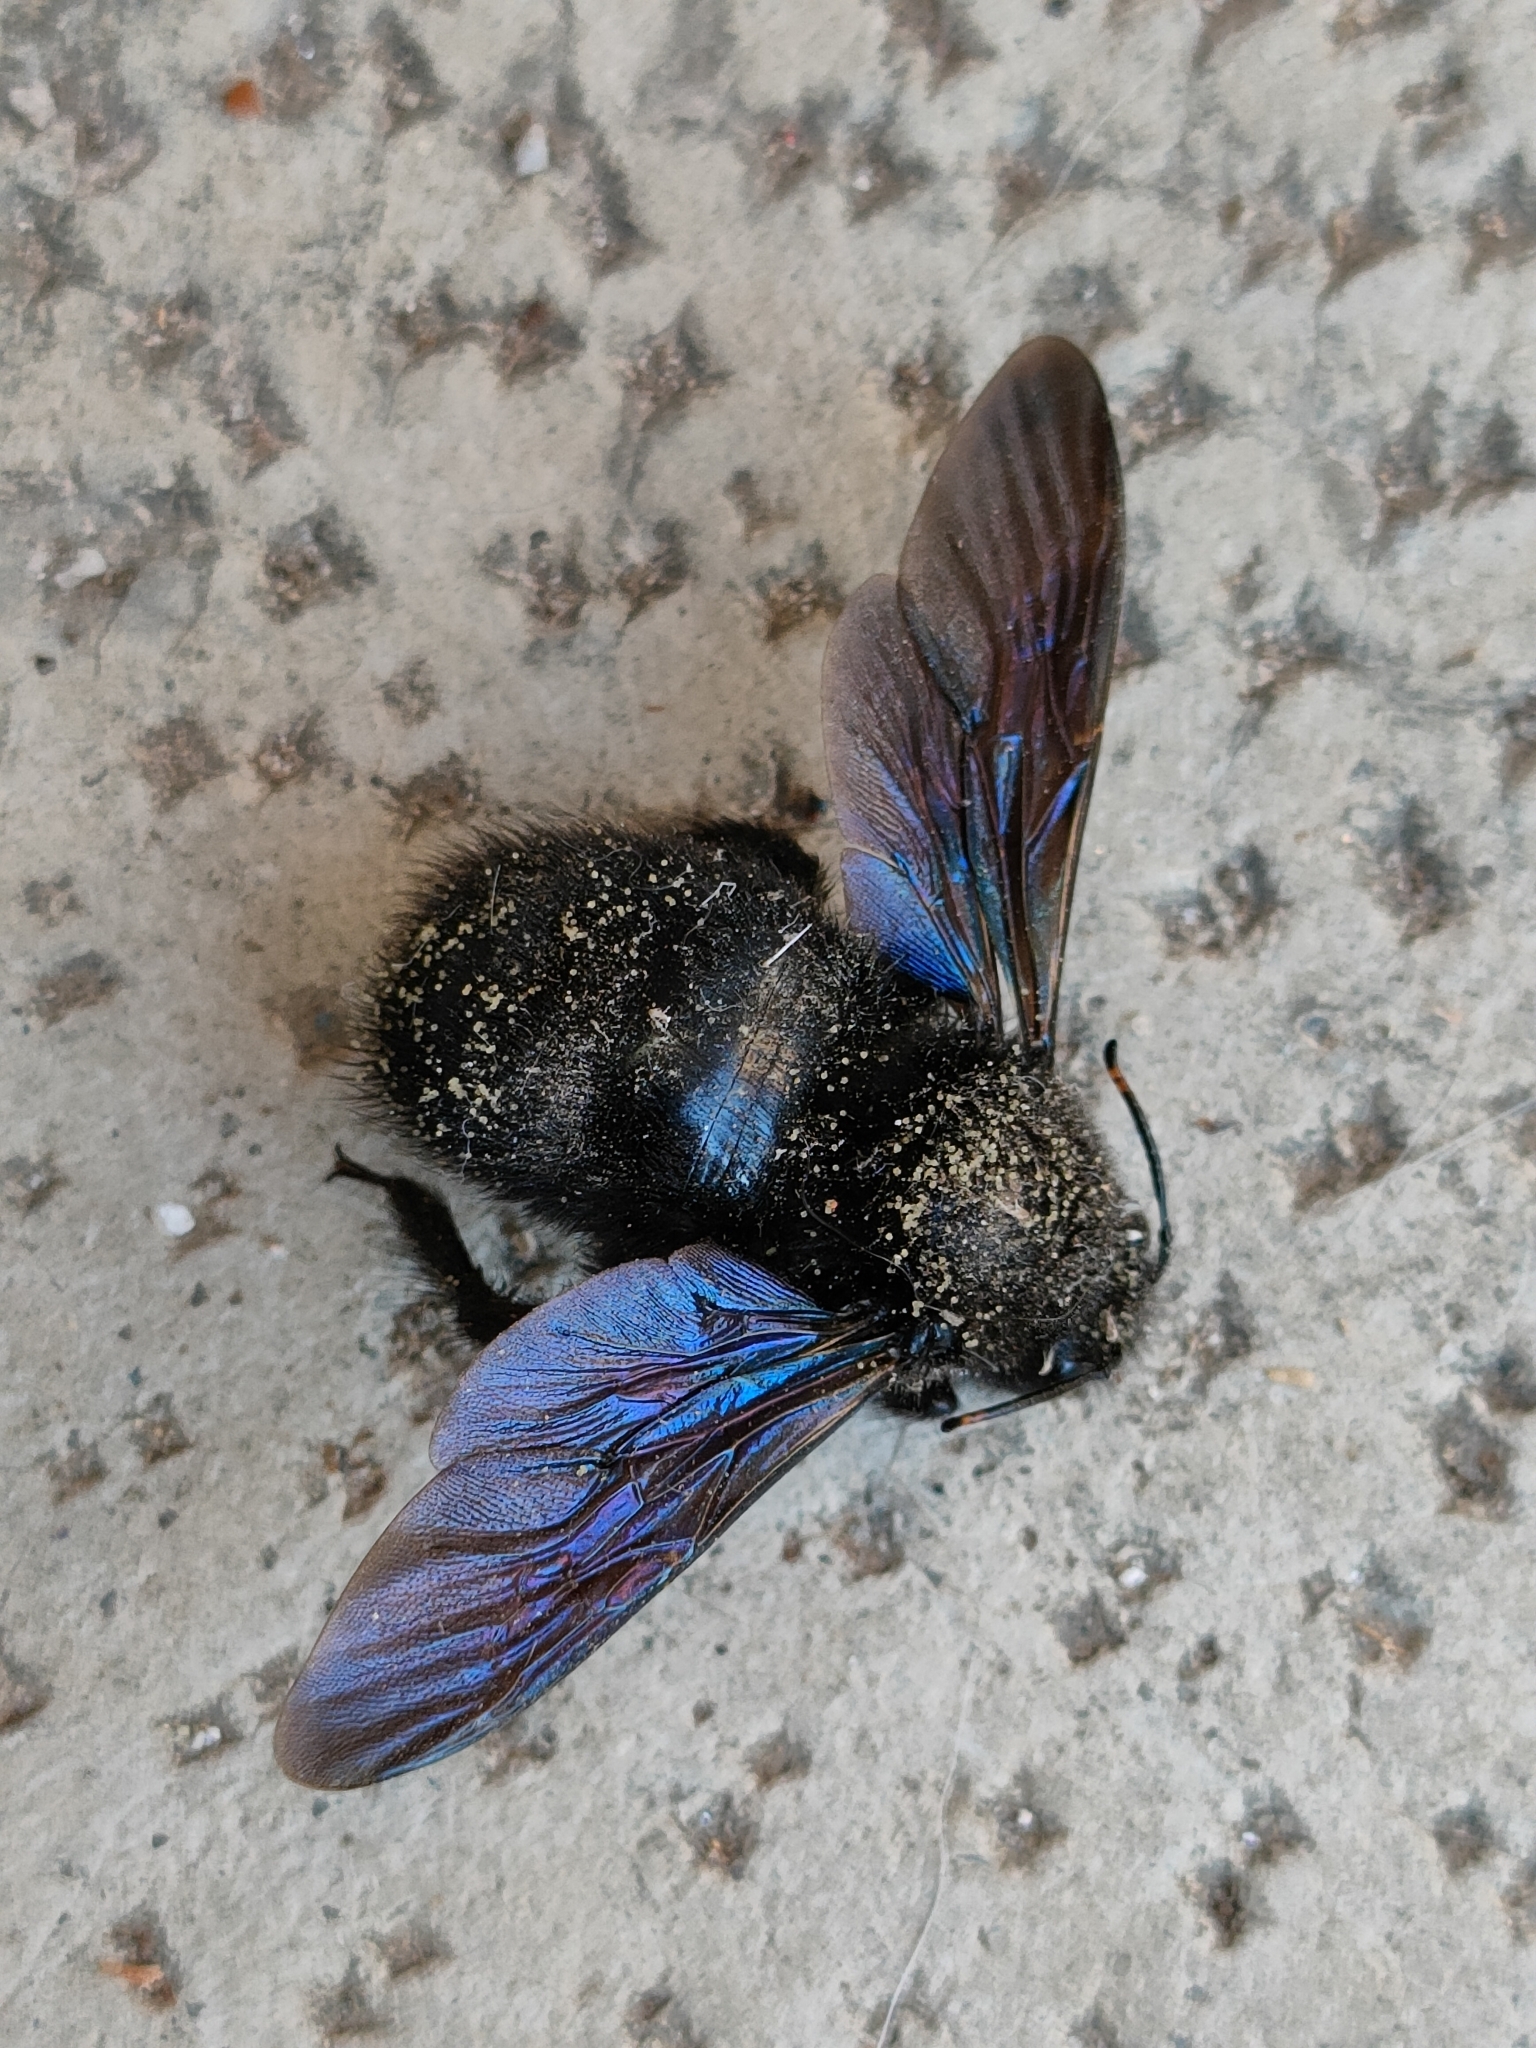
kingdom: Animalia
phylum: Arthropoda
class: Insecta
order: Hymenoptera
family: Apidae
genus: Xylocopa
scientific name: Xylocopa violacea
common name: Violet carpenter bee
